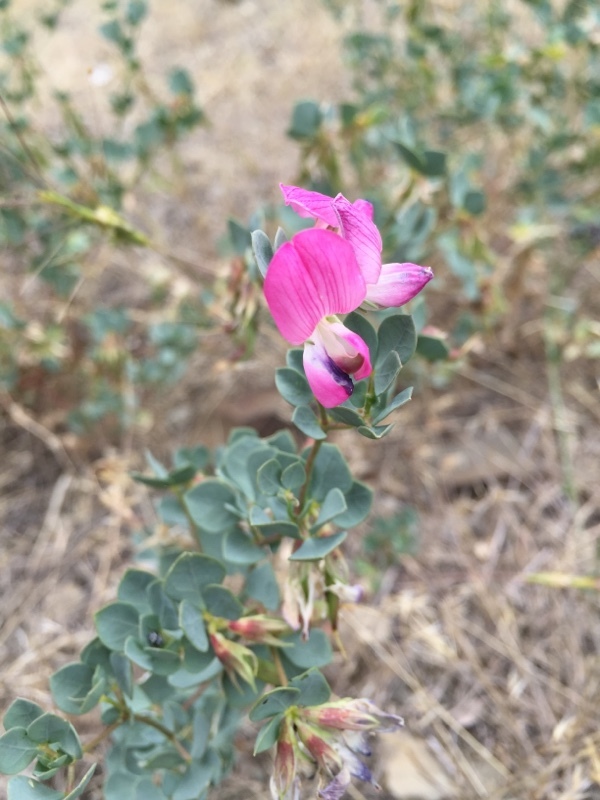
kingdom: Plantae
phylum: Tracheophyta
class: Magnoliopsida
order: Fabales
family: Fabaceae
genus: Lotus
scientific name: Lotus gebelia
